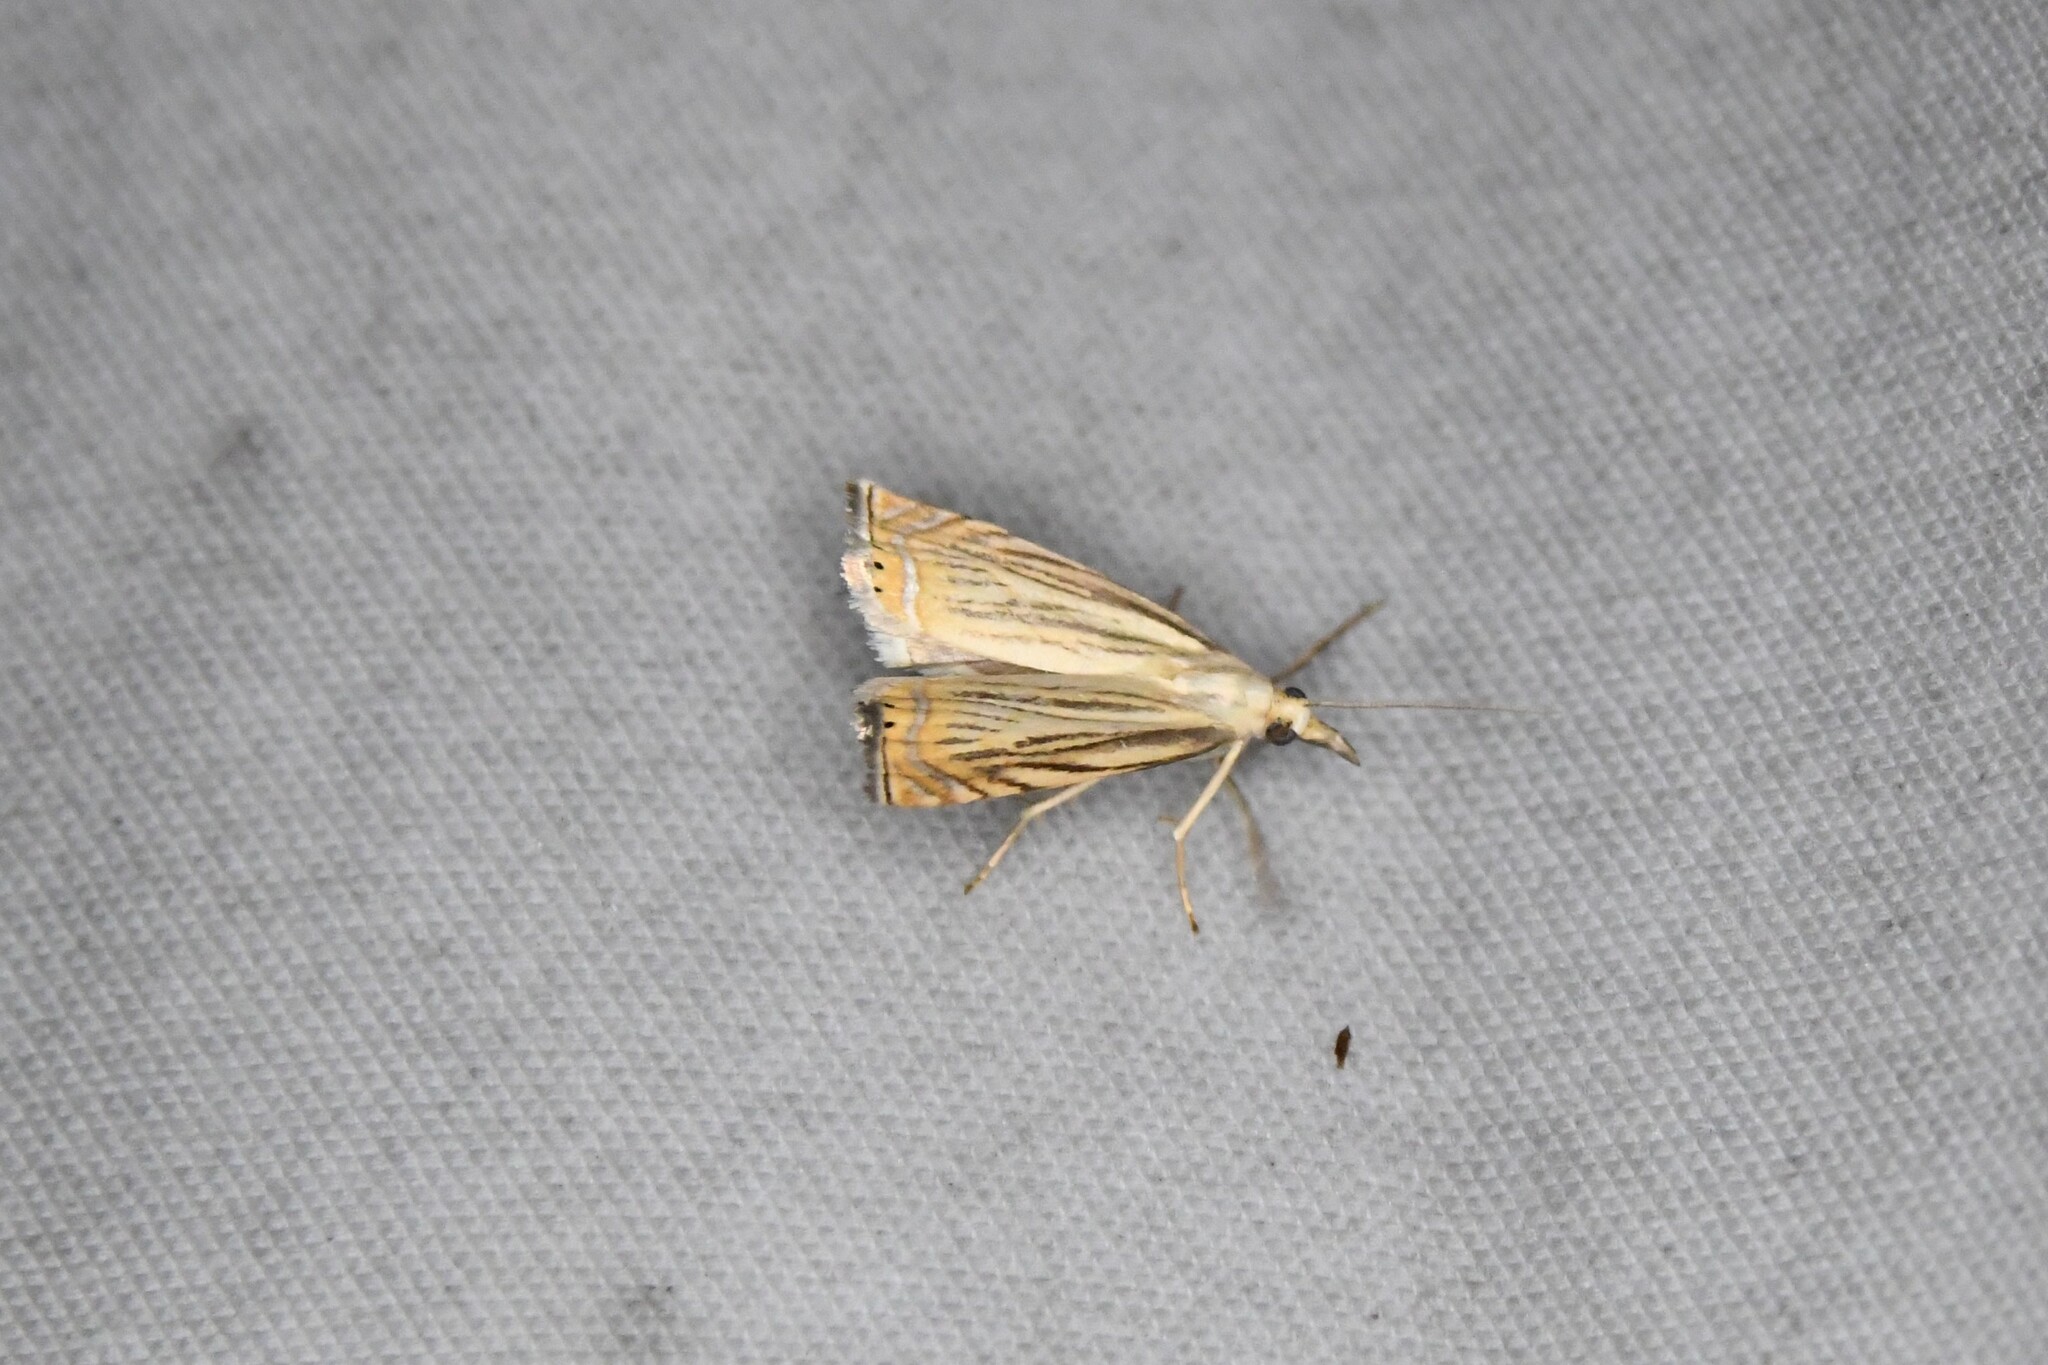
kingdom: Animalia
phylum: Arthropoda
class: Insecta
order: Lepidoptera
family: Crambidae
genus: Chrysoteuchia
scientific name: Chrysoteuchia topiarius
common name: Topiary grass-veneer
